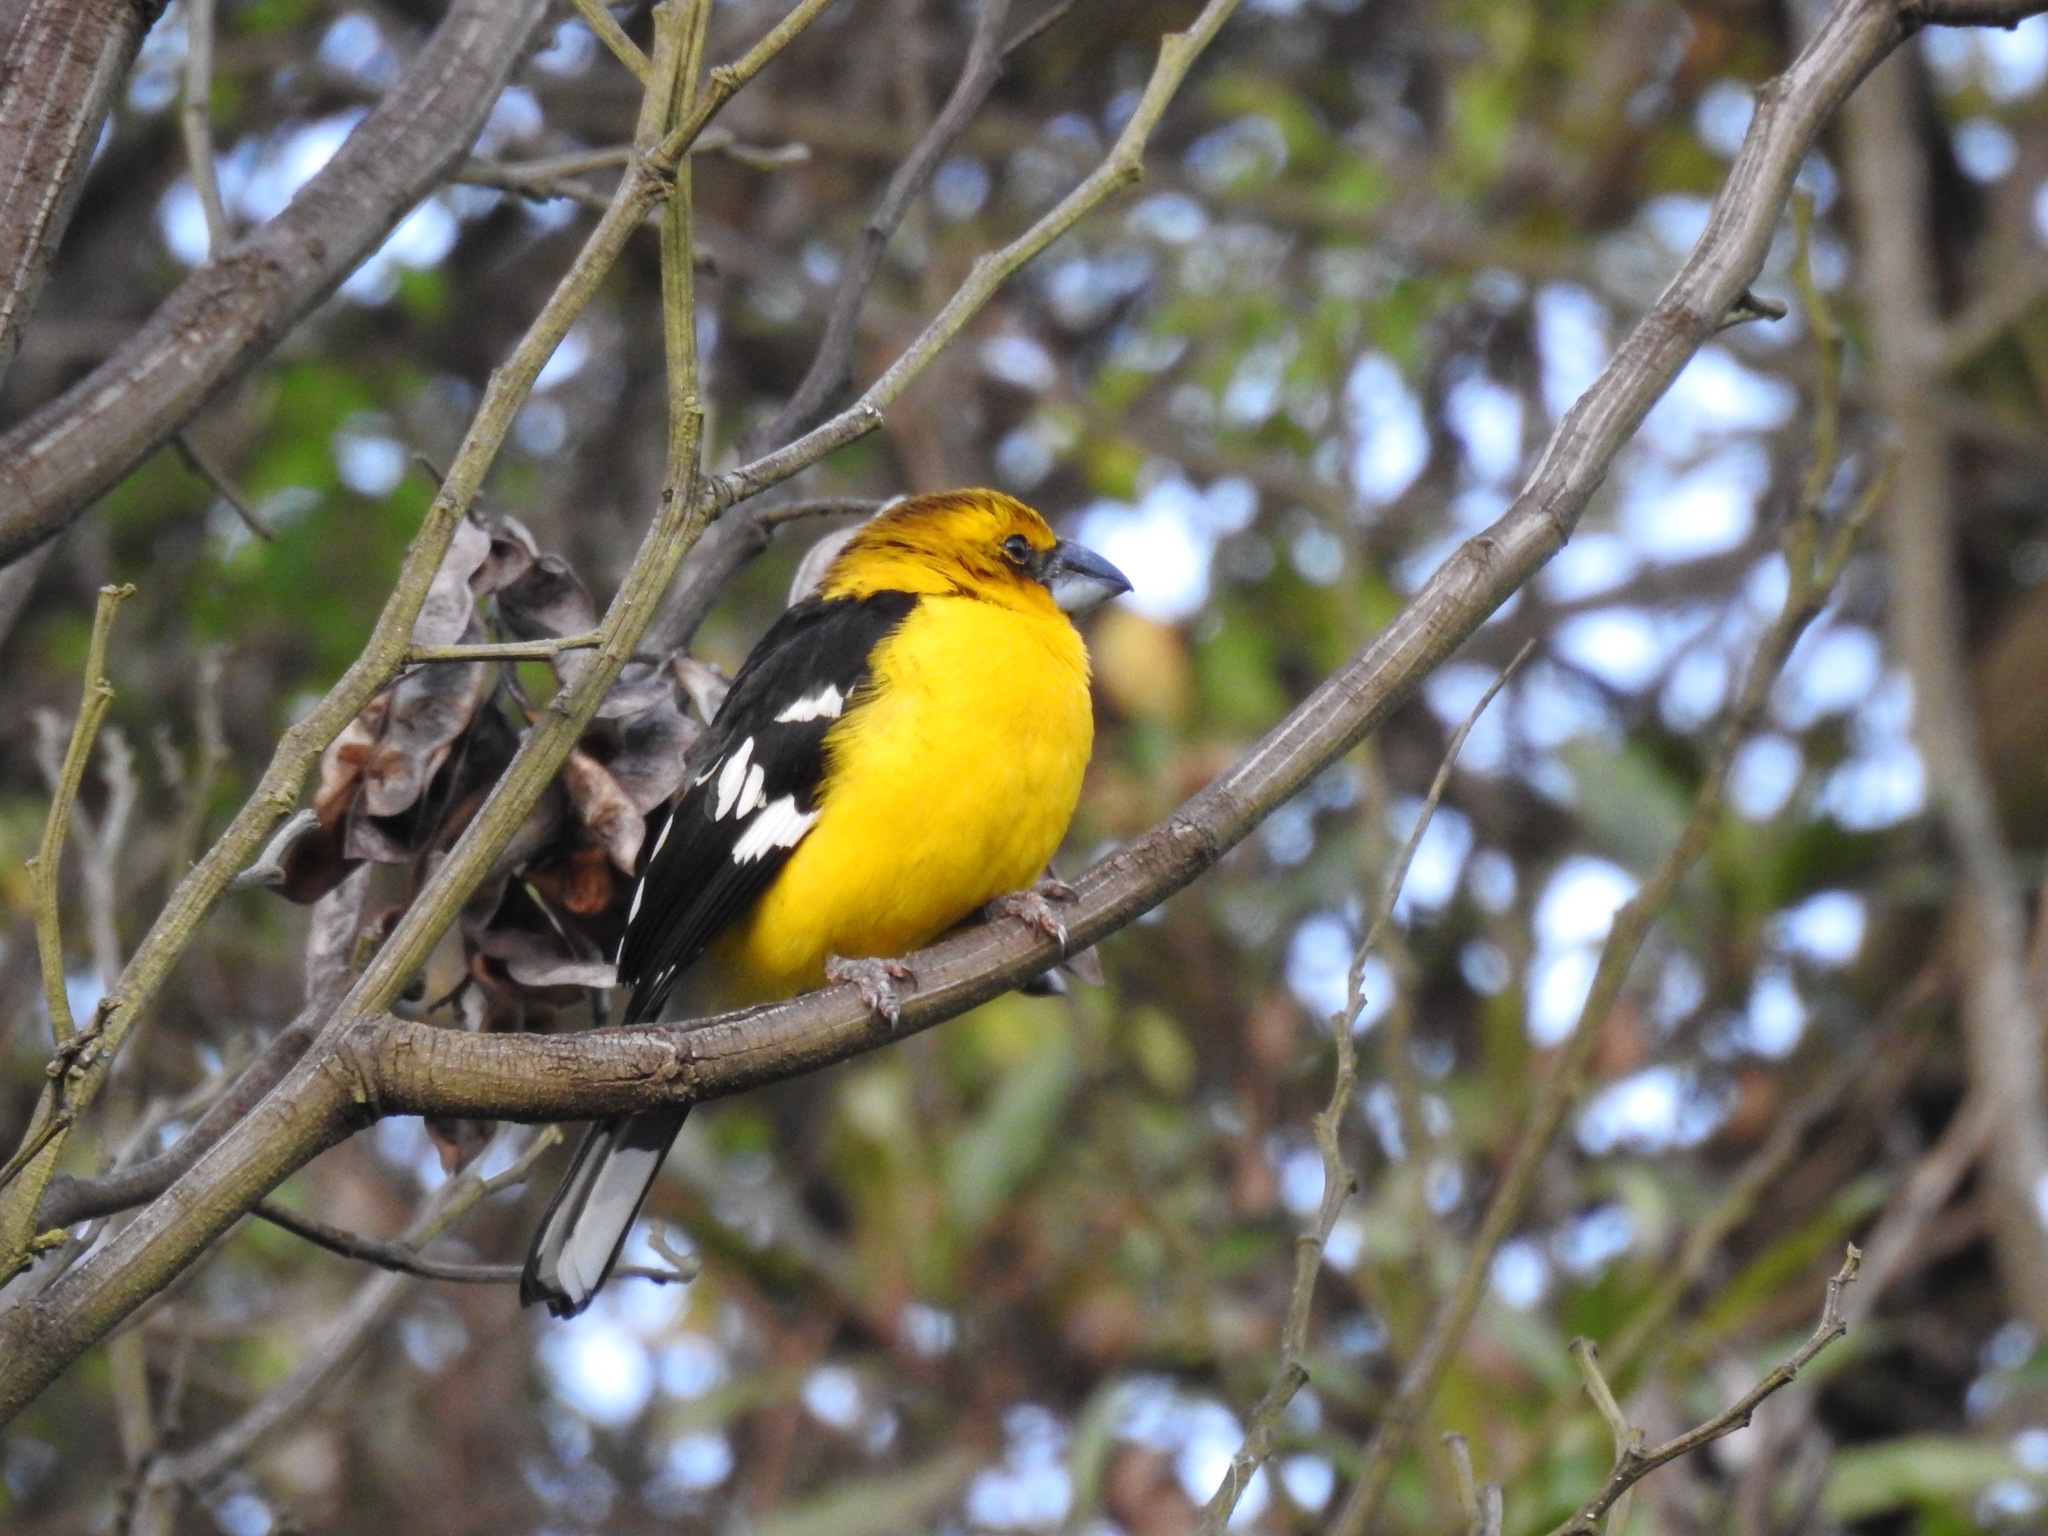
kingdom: Animalia
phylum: Chordata
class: Aves
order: Passeriformes
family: Cardinalidae
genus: Pheucticus
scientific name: Pheucticus chrysogaster
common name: Golden grosbeak
